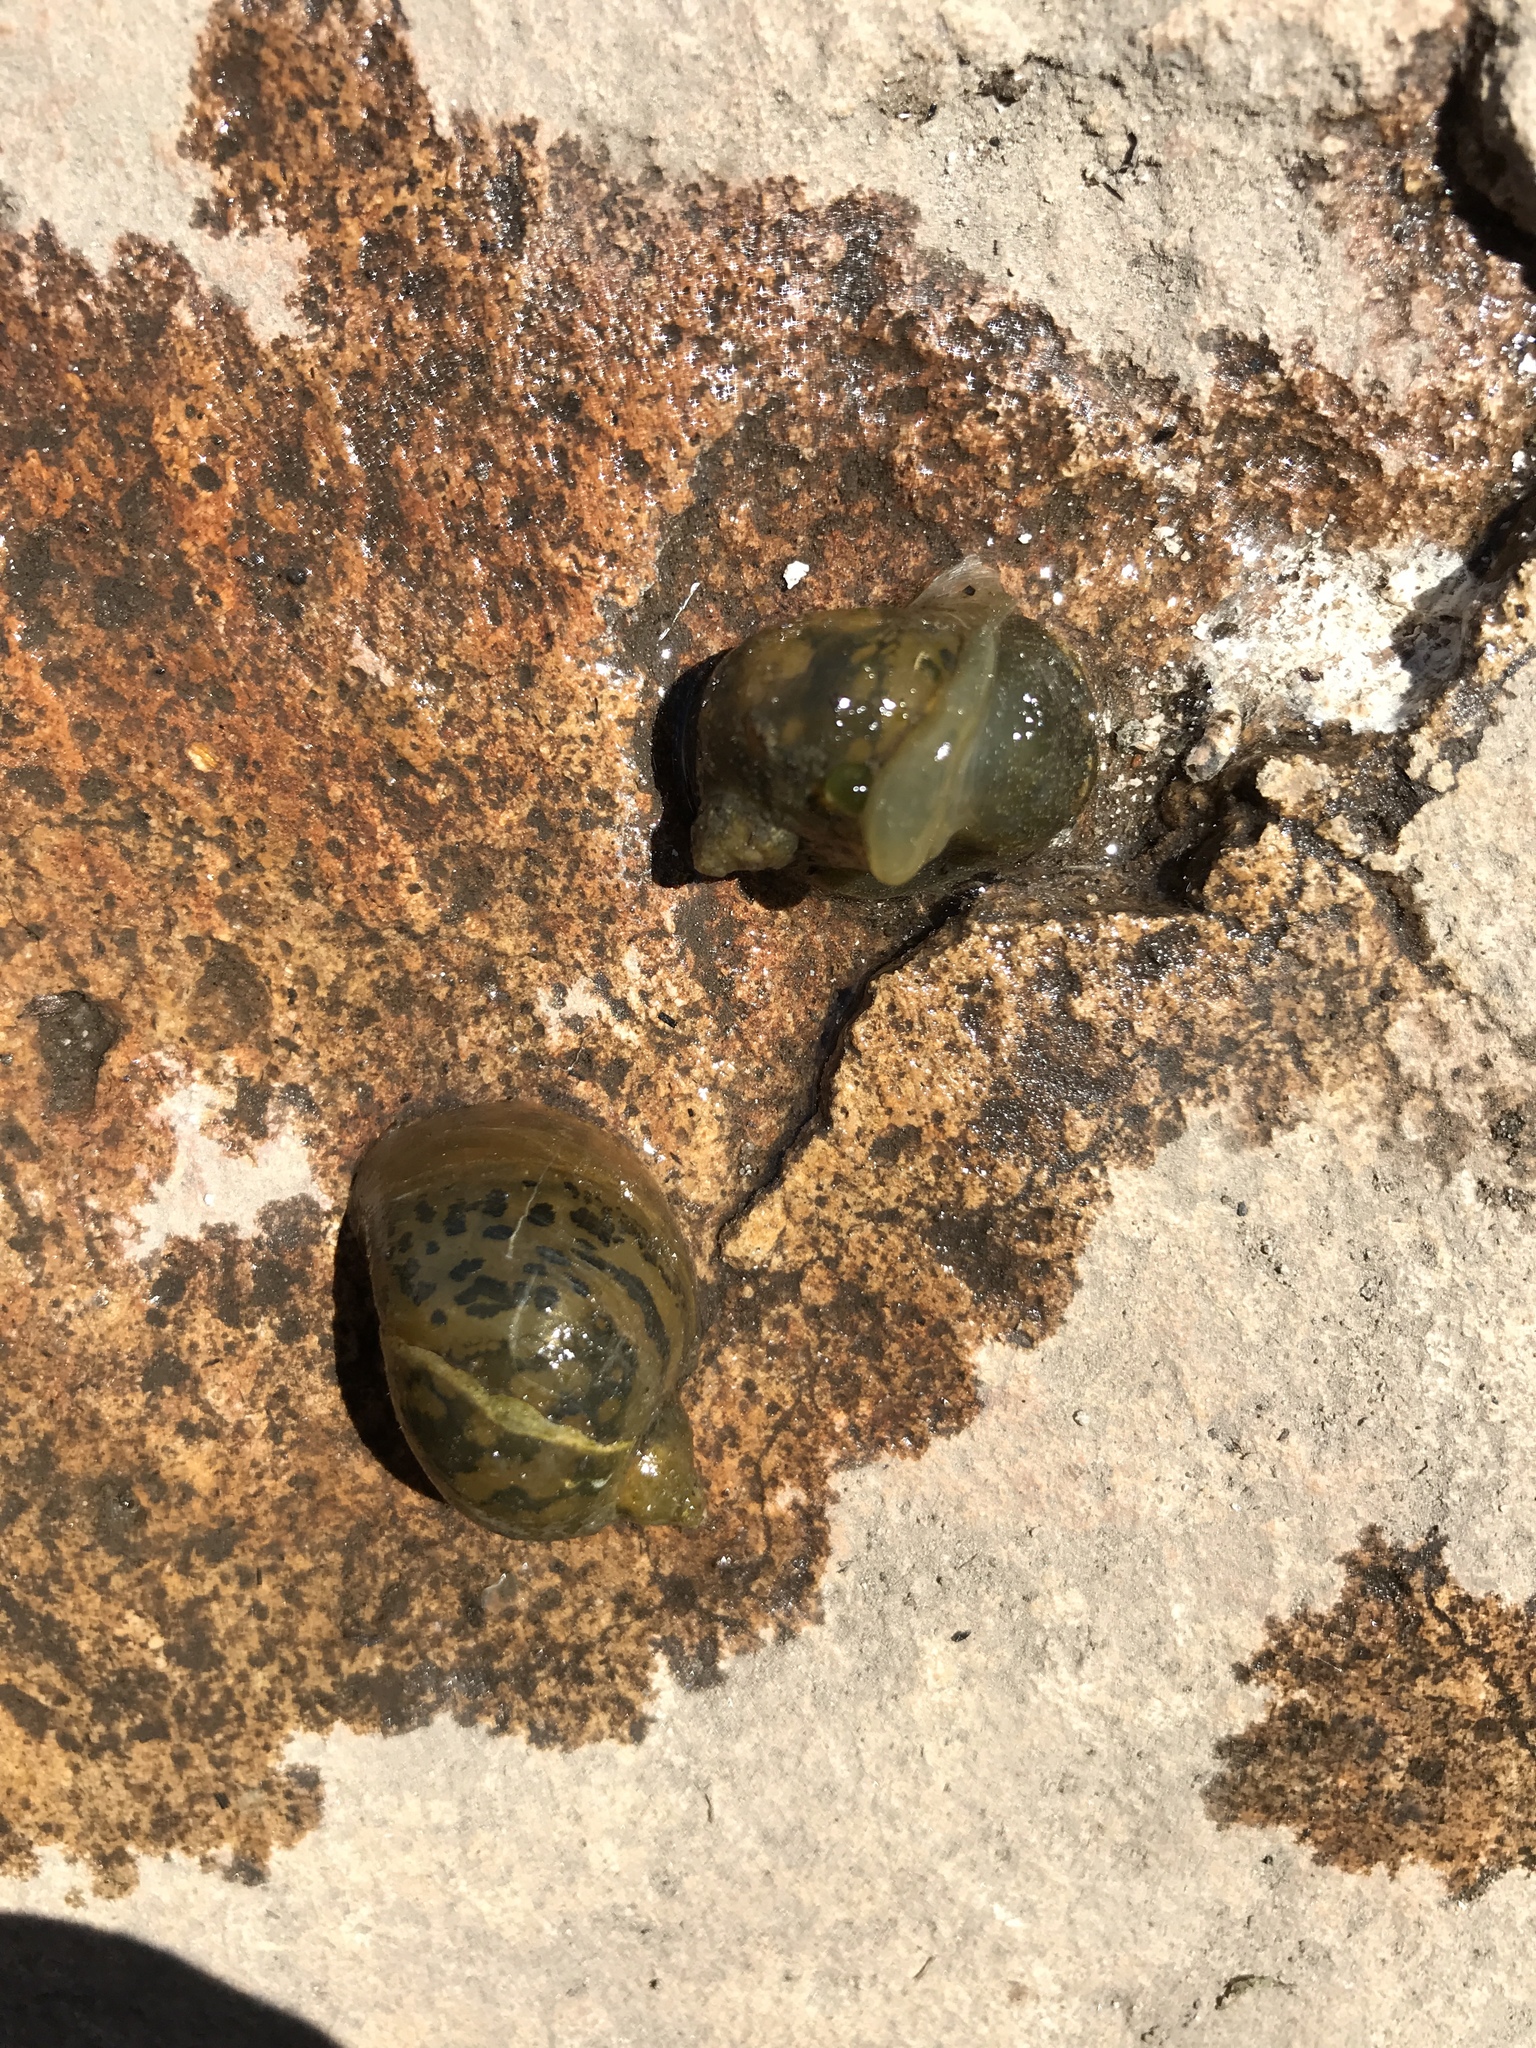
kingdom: Animalia
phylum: Mollusca
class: Gastropoda
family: Lymnaeidae
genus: Radix
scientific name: Radix auricularia
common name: Ear pond snail
